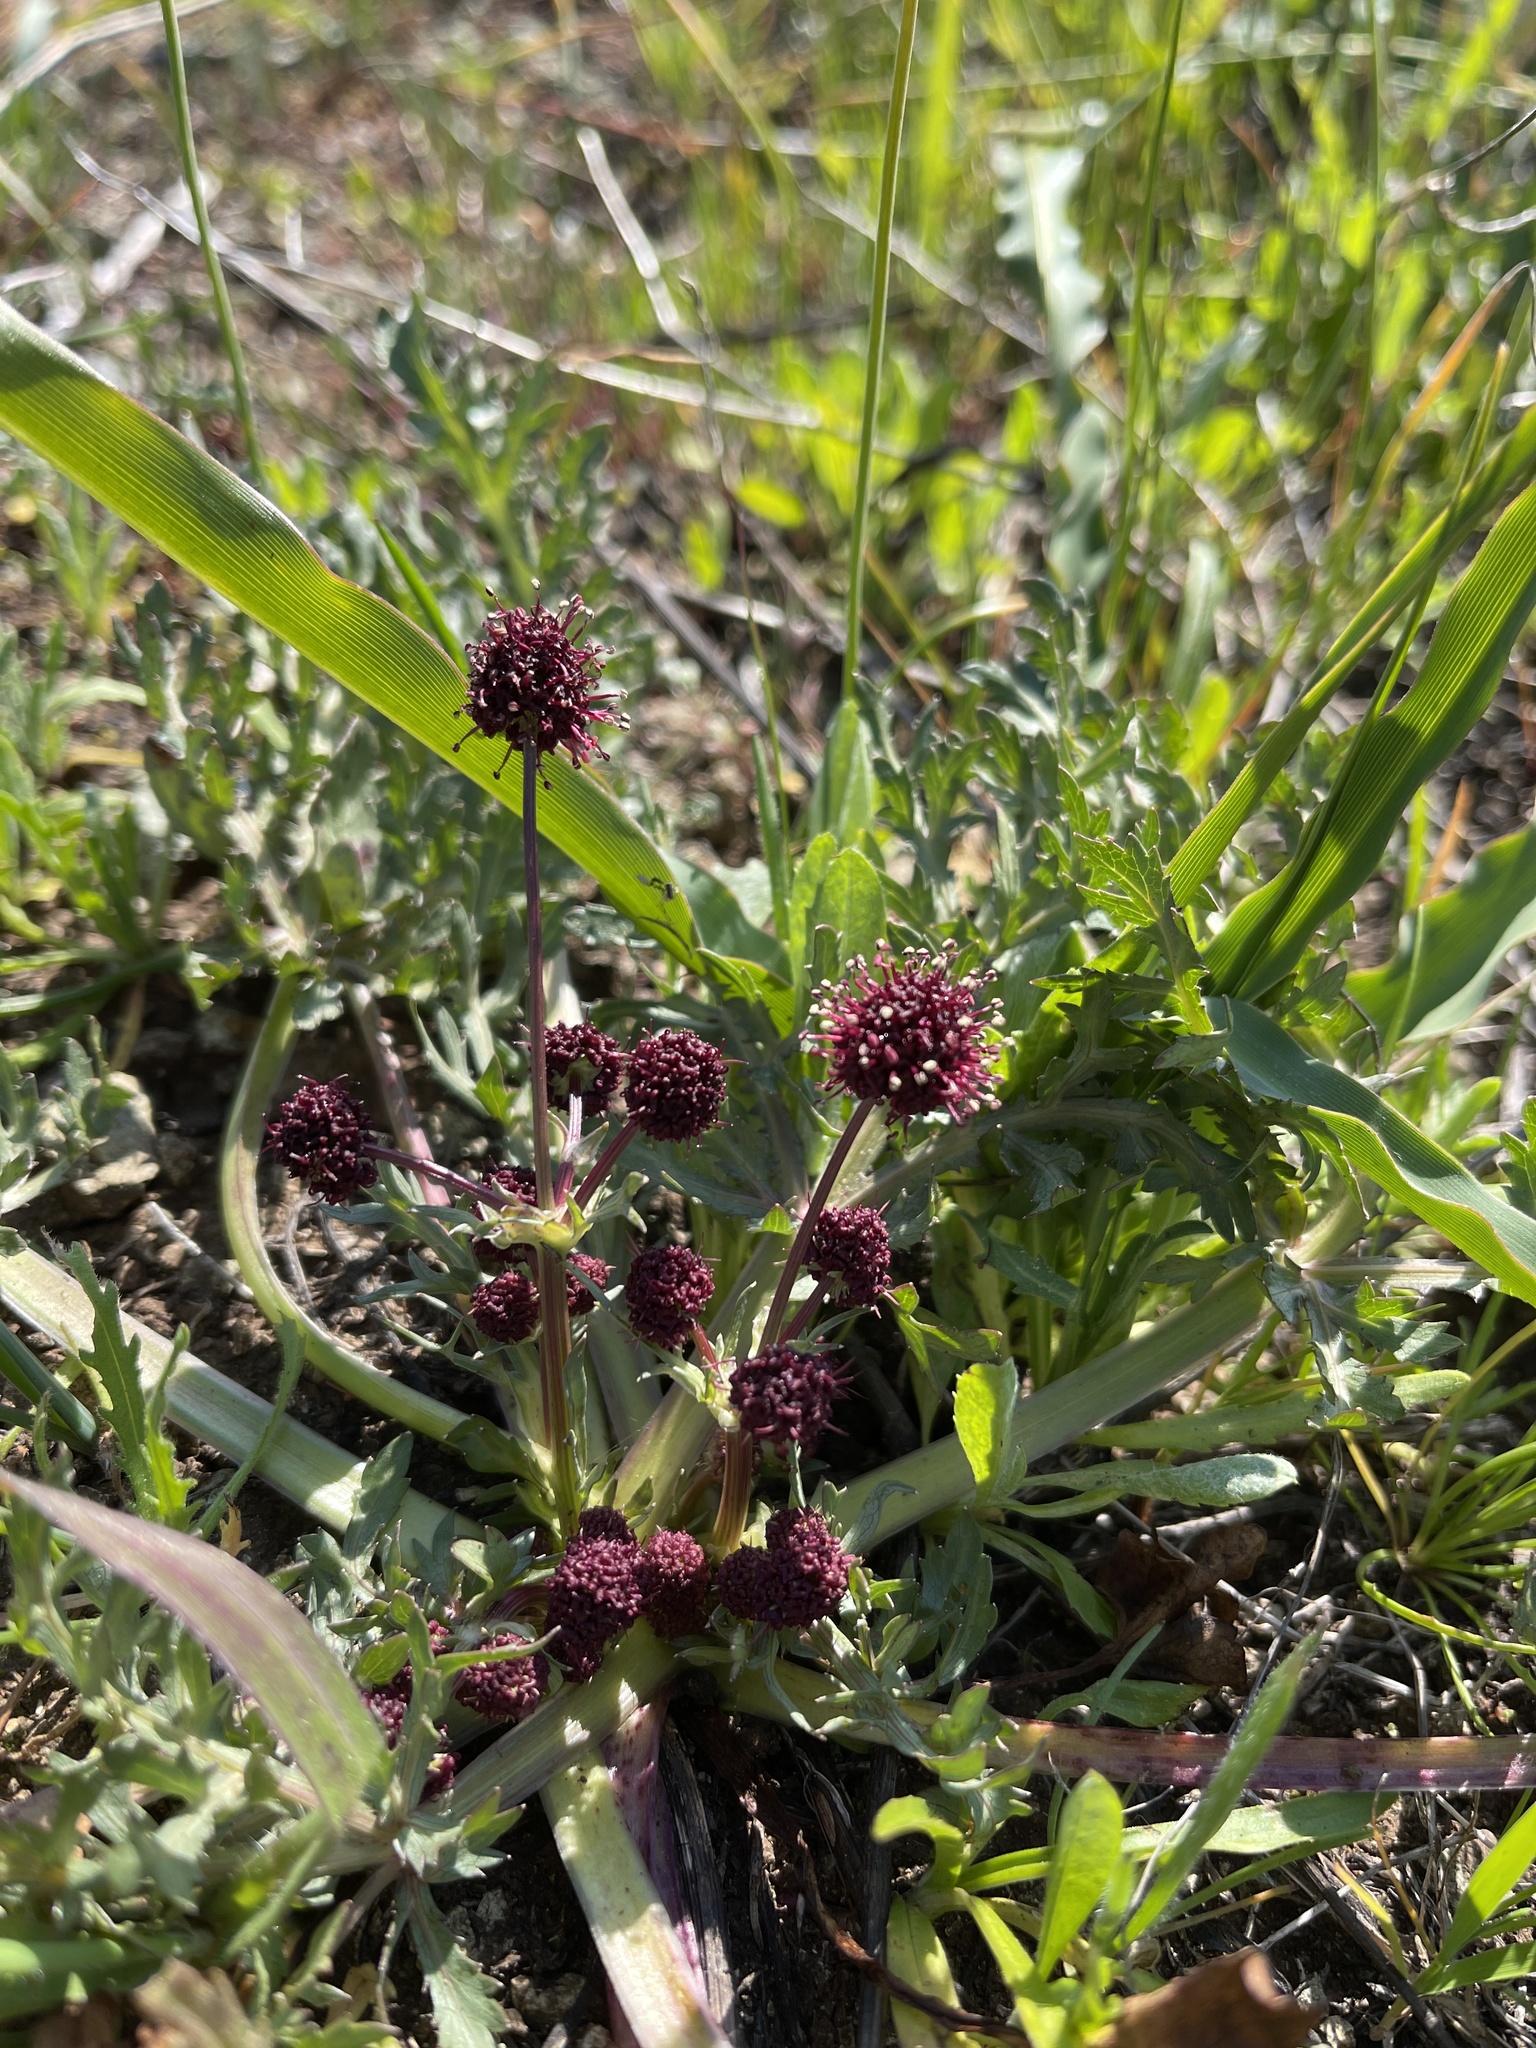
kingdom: Plantae
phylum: Tracheophyta
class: Magnoliopsida
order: Apiales
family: Apiaceae
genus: Sanicula
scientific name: Sanicula bipinnatifida
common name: Shoe-buttons
